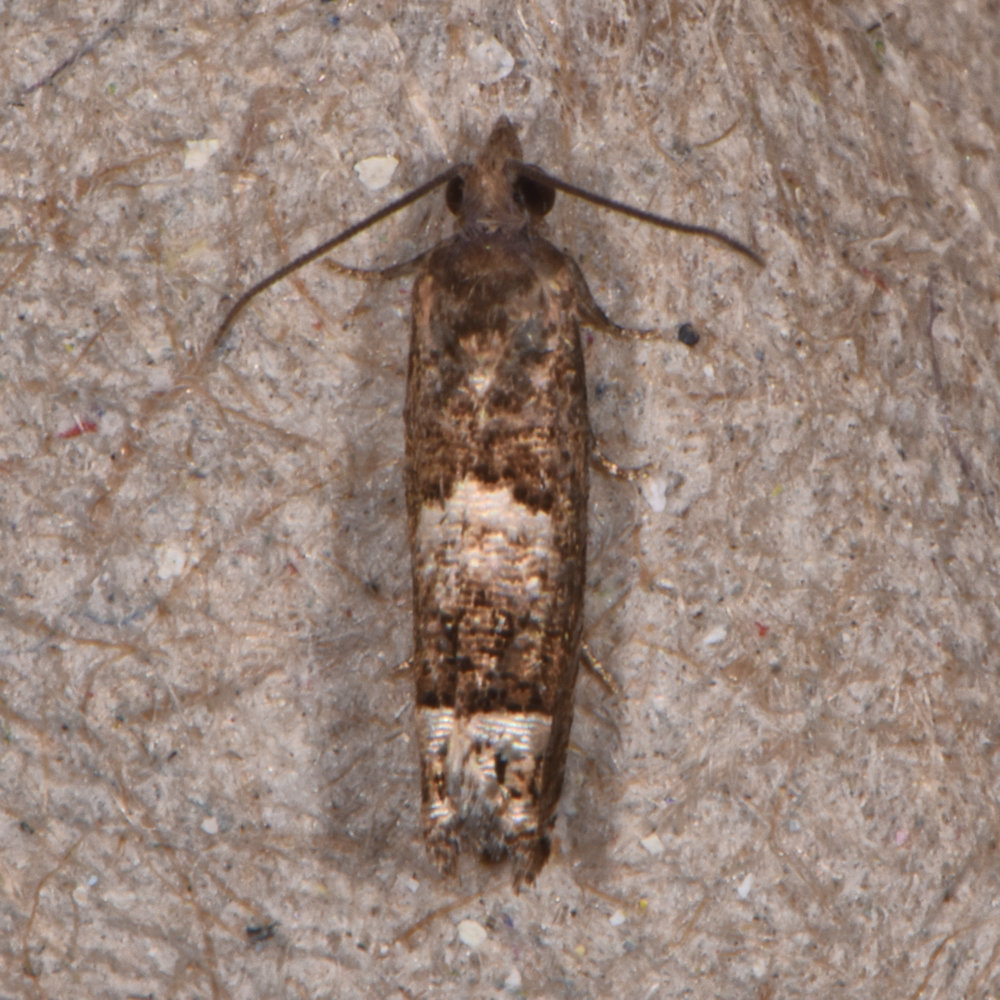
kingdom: Animalia
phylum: Arthropoda
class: Insecta
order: Lepidoptera
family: Tortricidae
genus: Eucosma
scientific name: Eucosma parmatana
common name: Aster eucosma moth
